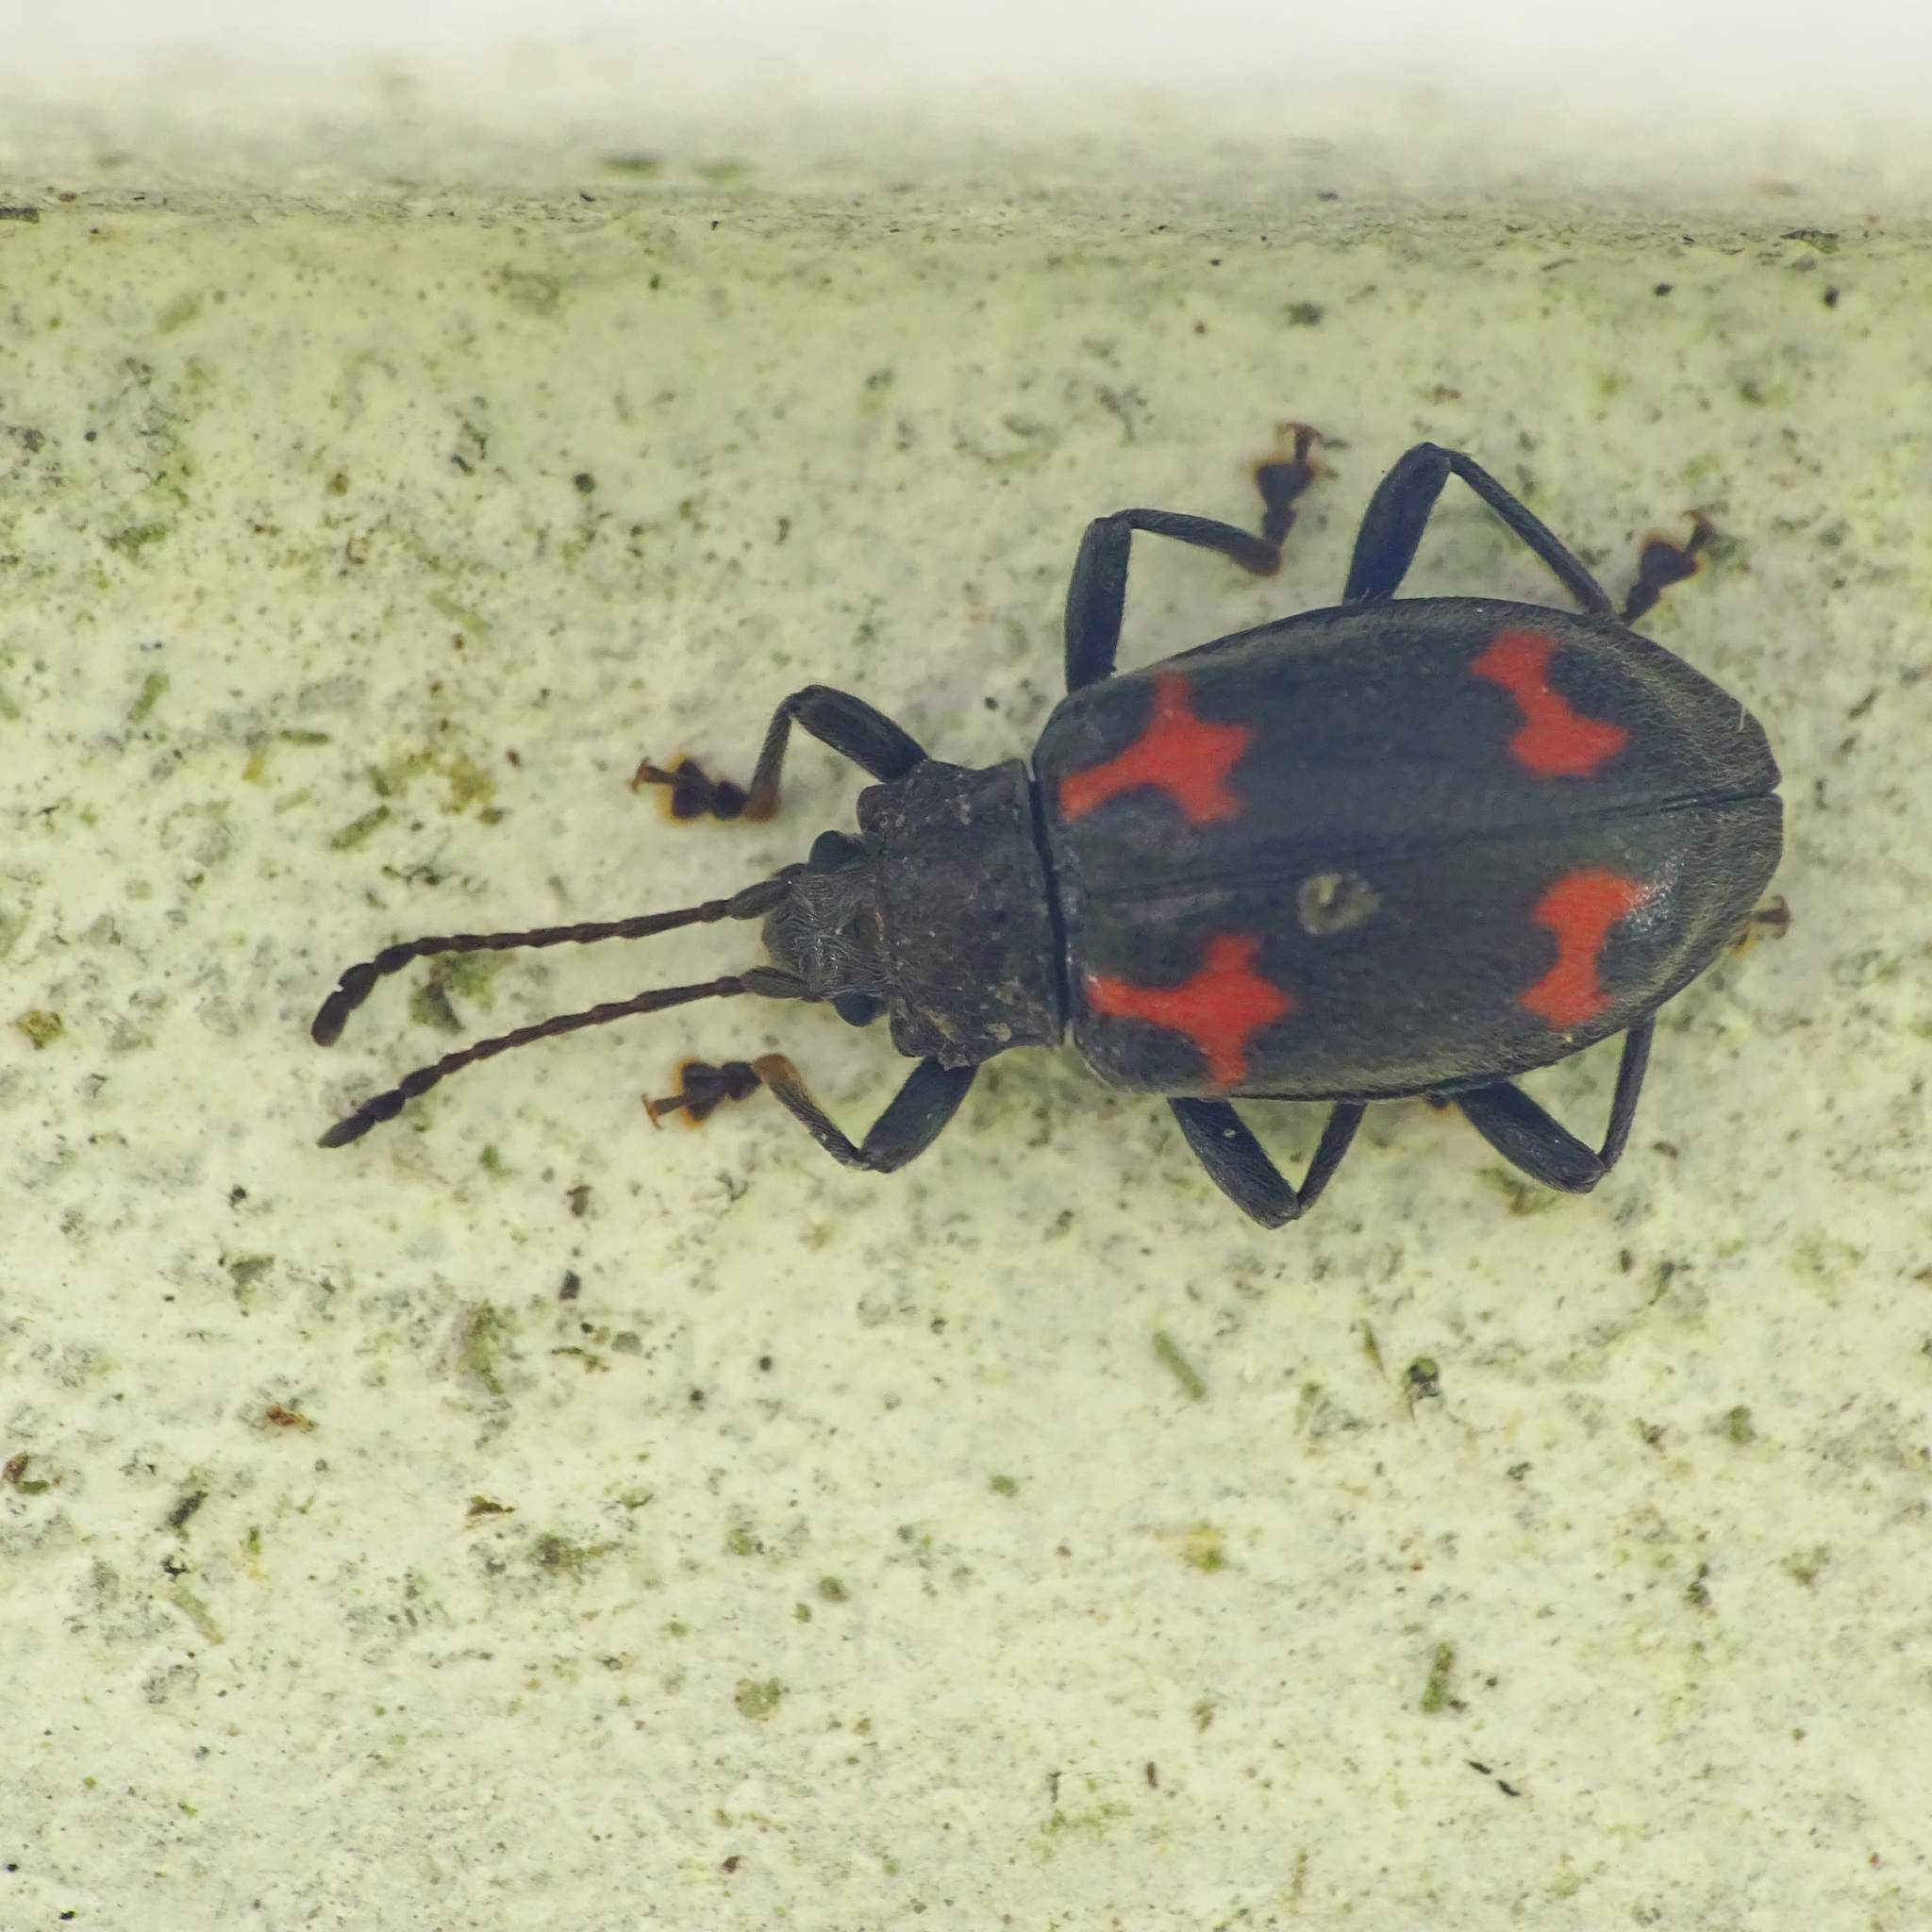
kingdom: Animalia
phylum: Arthropoda
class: Insecta
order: Coleoptera
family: Endomychidae
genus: Parindalmus
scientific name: Parindalmus
